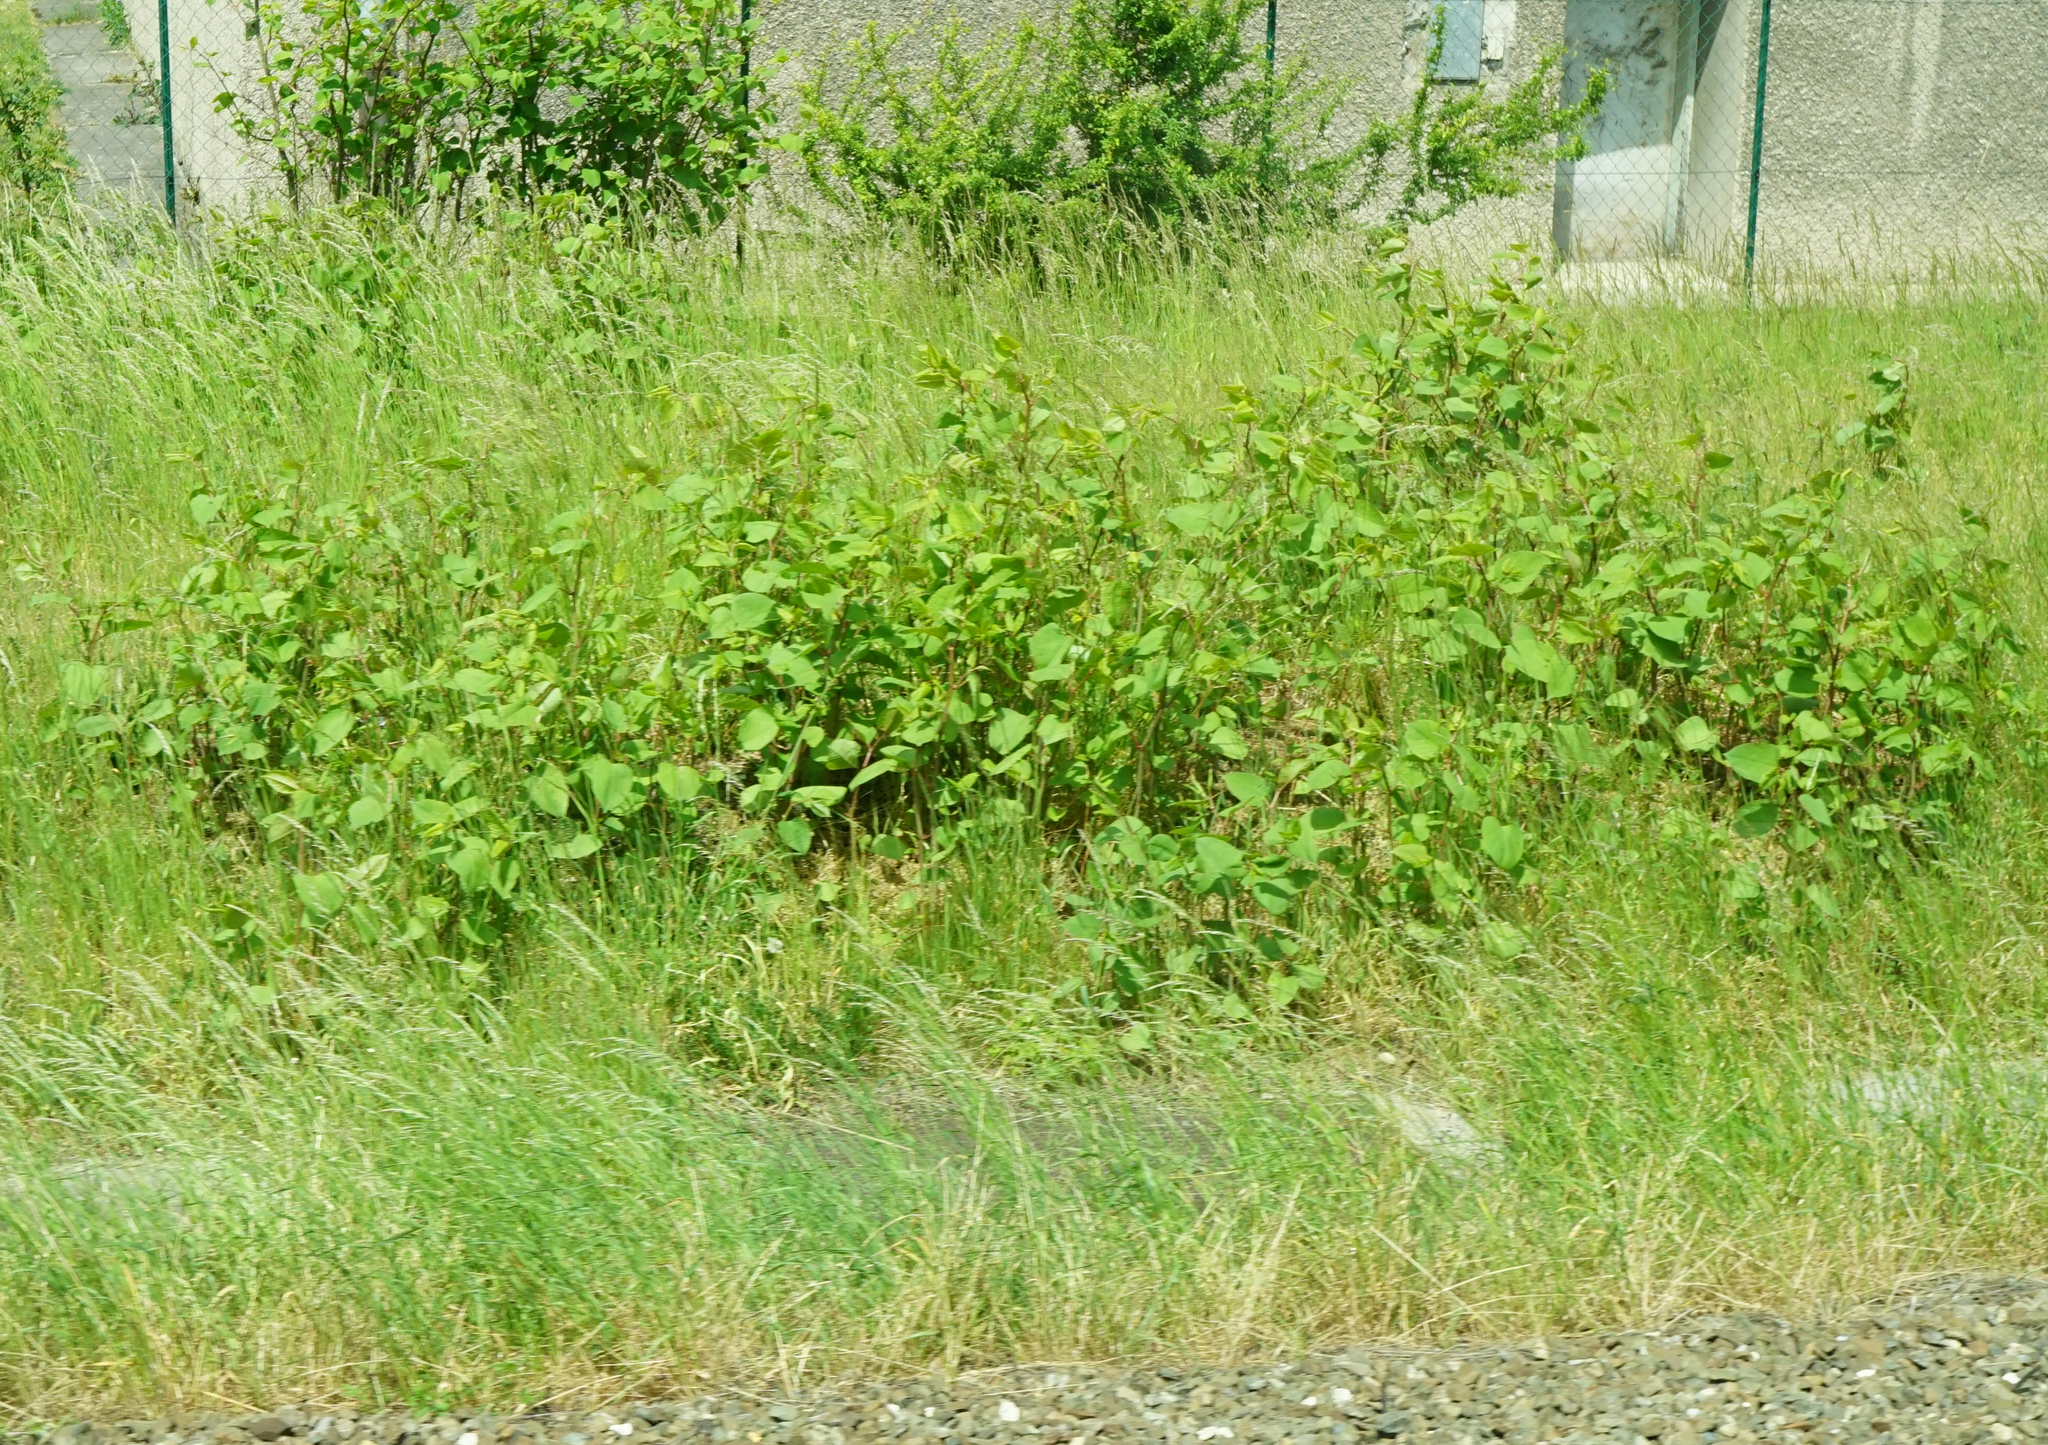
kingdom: Plantae
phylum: Tracheophyta
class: Magnoliopsida
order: Caryophyllales
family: Polygonaceae
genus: Reynoutria
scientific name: Reynoutria bohemica
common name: Bohemian knotweed
